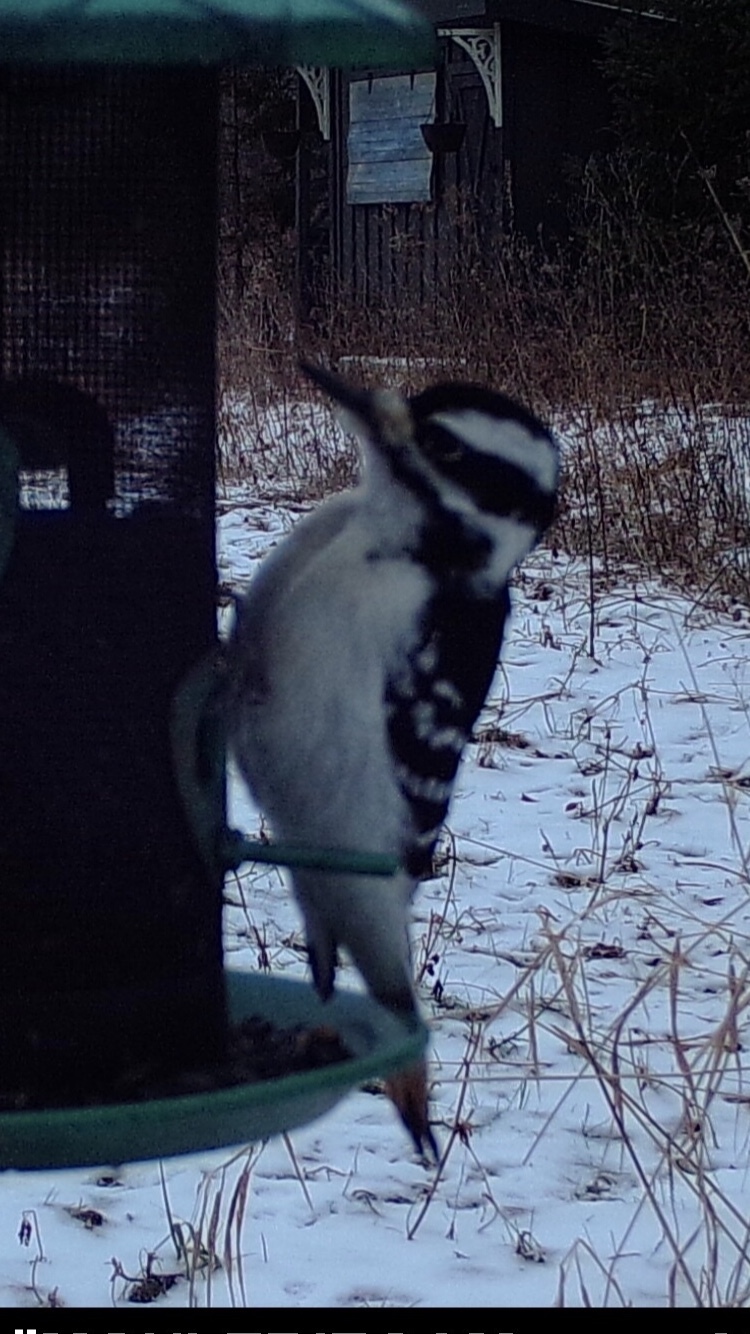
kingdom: Animalia
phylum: Chordata
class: Aves
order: Piciformes
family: Picidae
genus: Leuconotopicus
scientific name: Leuconotopicus villosus
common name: Hairy woodpecker
